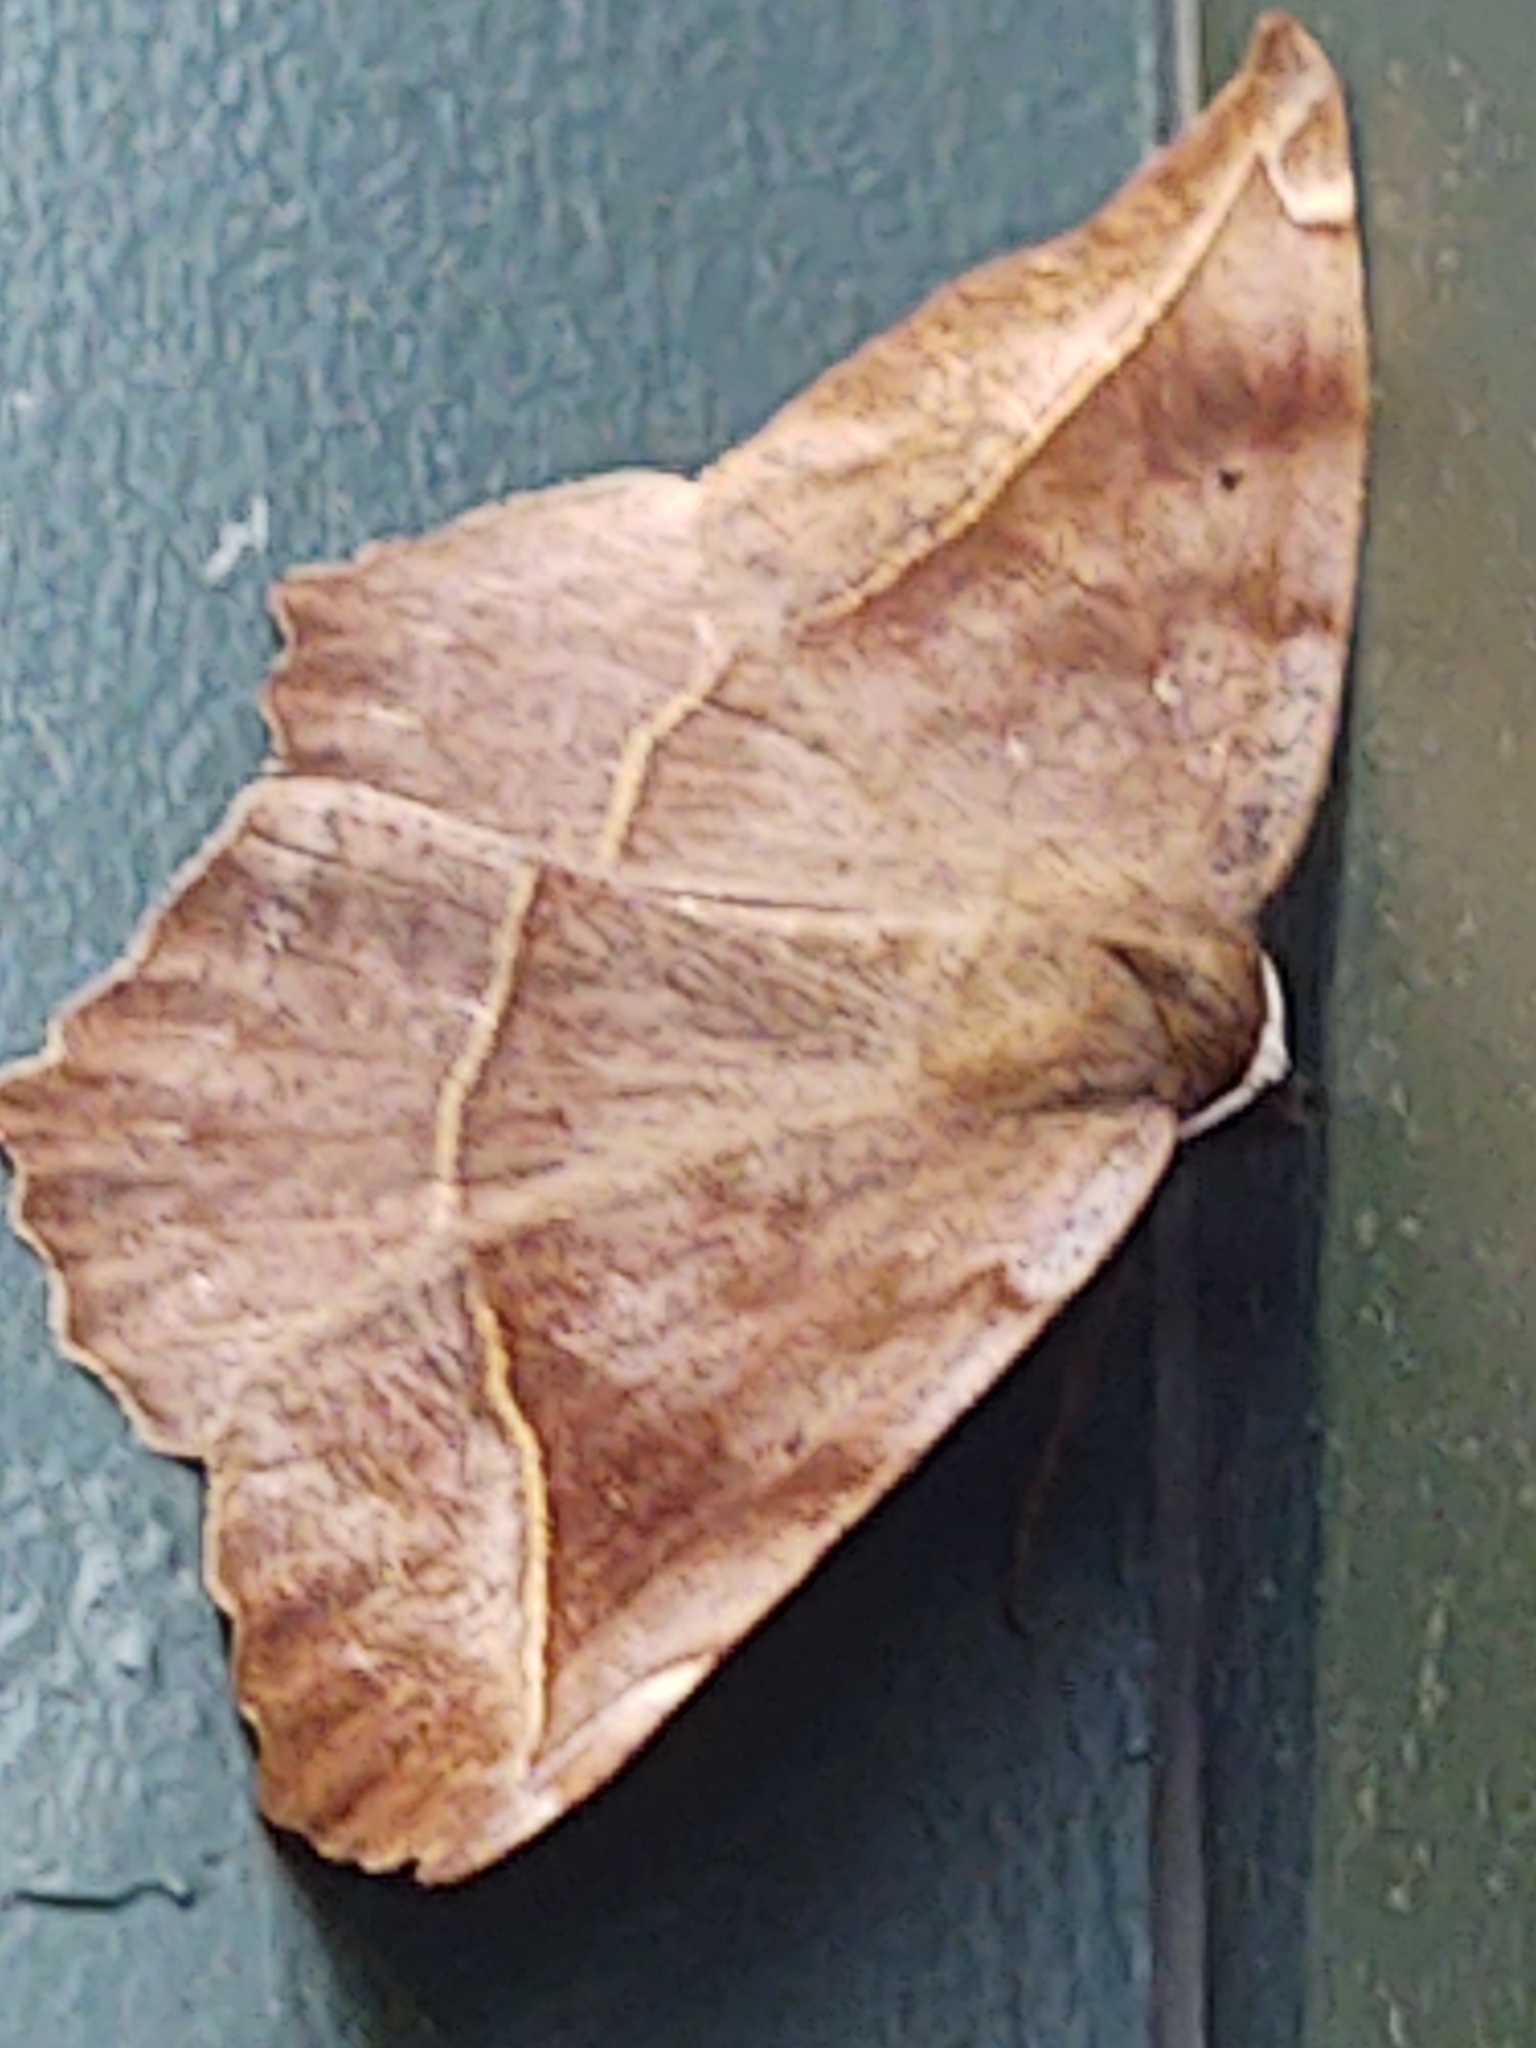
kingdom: Animalia
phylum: Arthropoda
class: Insecta
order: Lepidoptera
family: Geometridae
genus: Eutrapela
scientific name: Eutrapela clemataria
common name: Curved-toothed geometer
